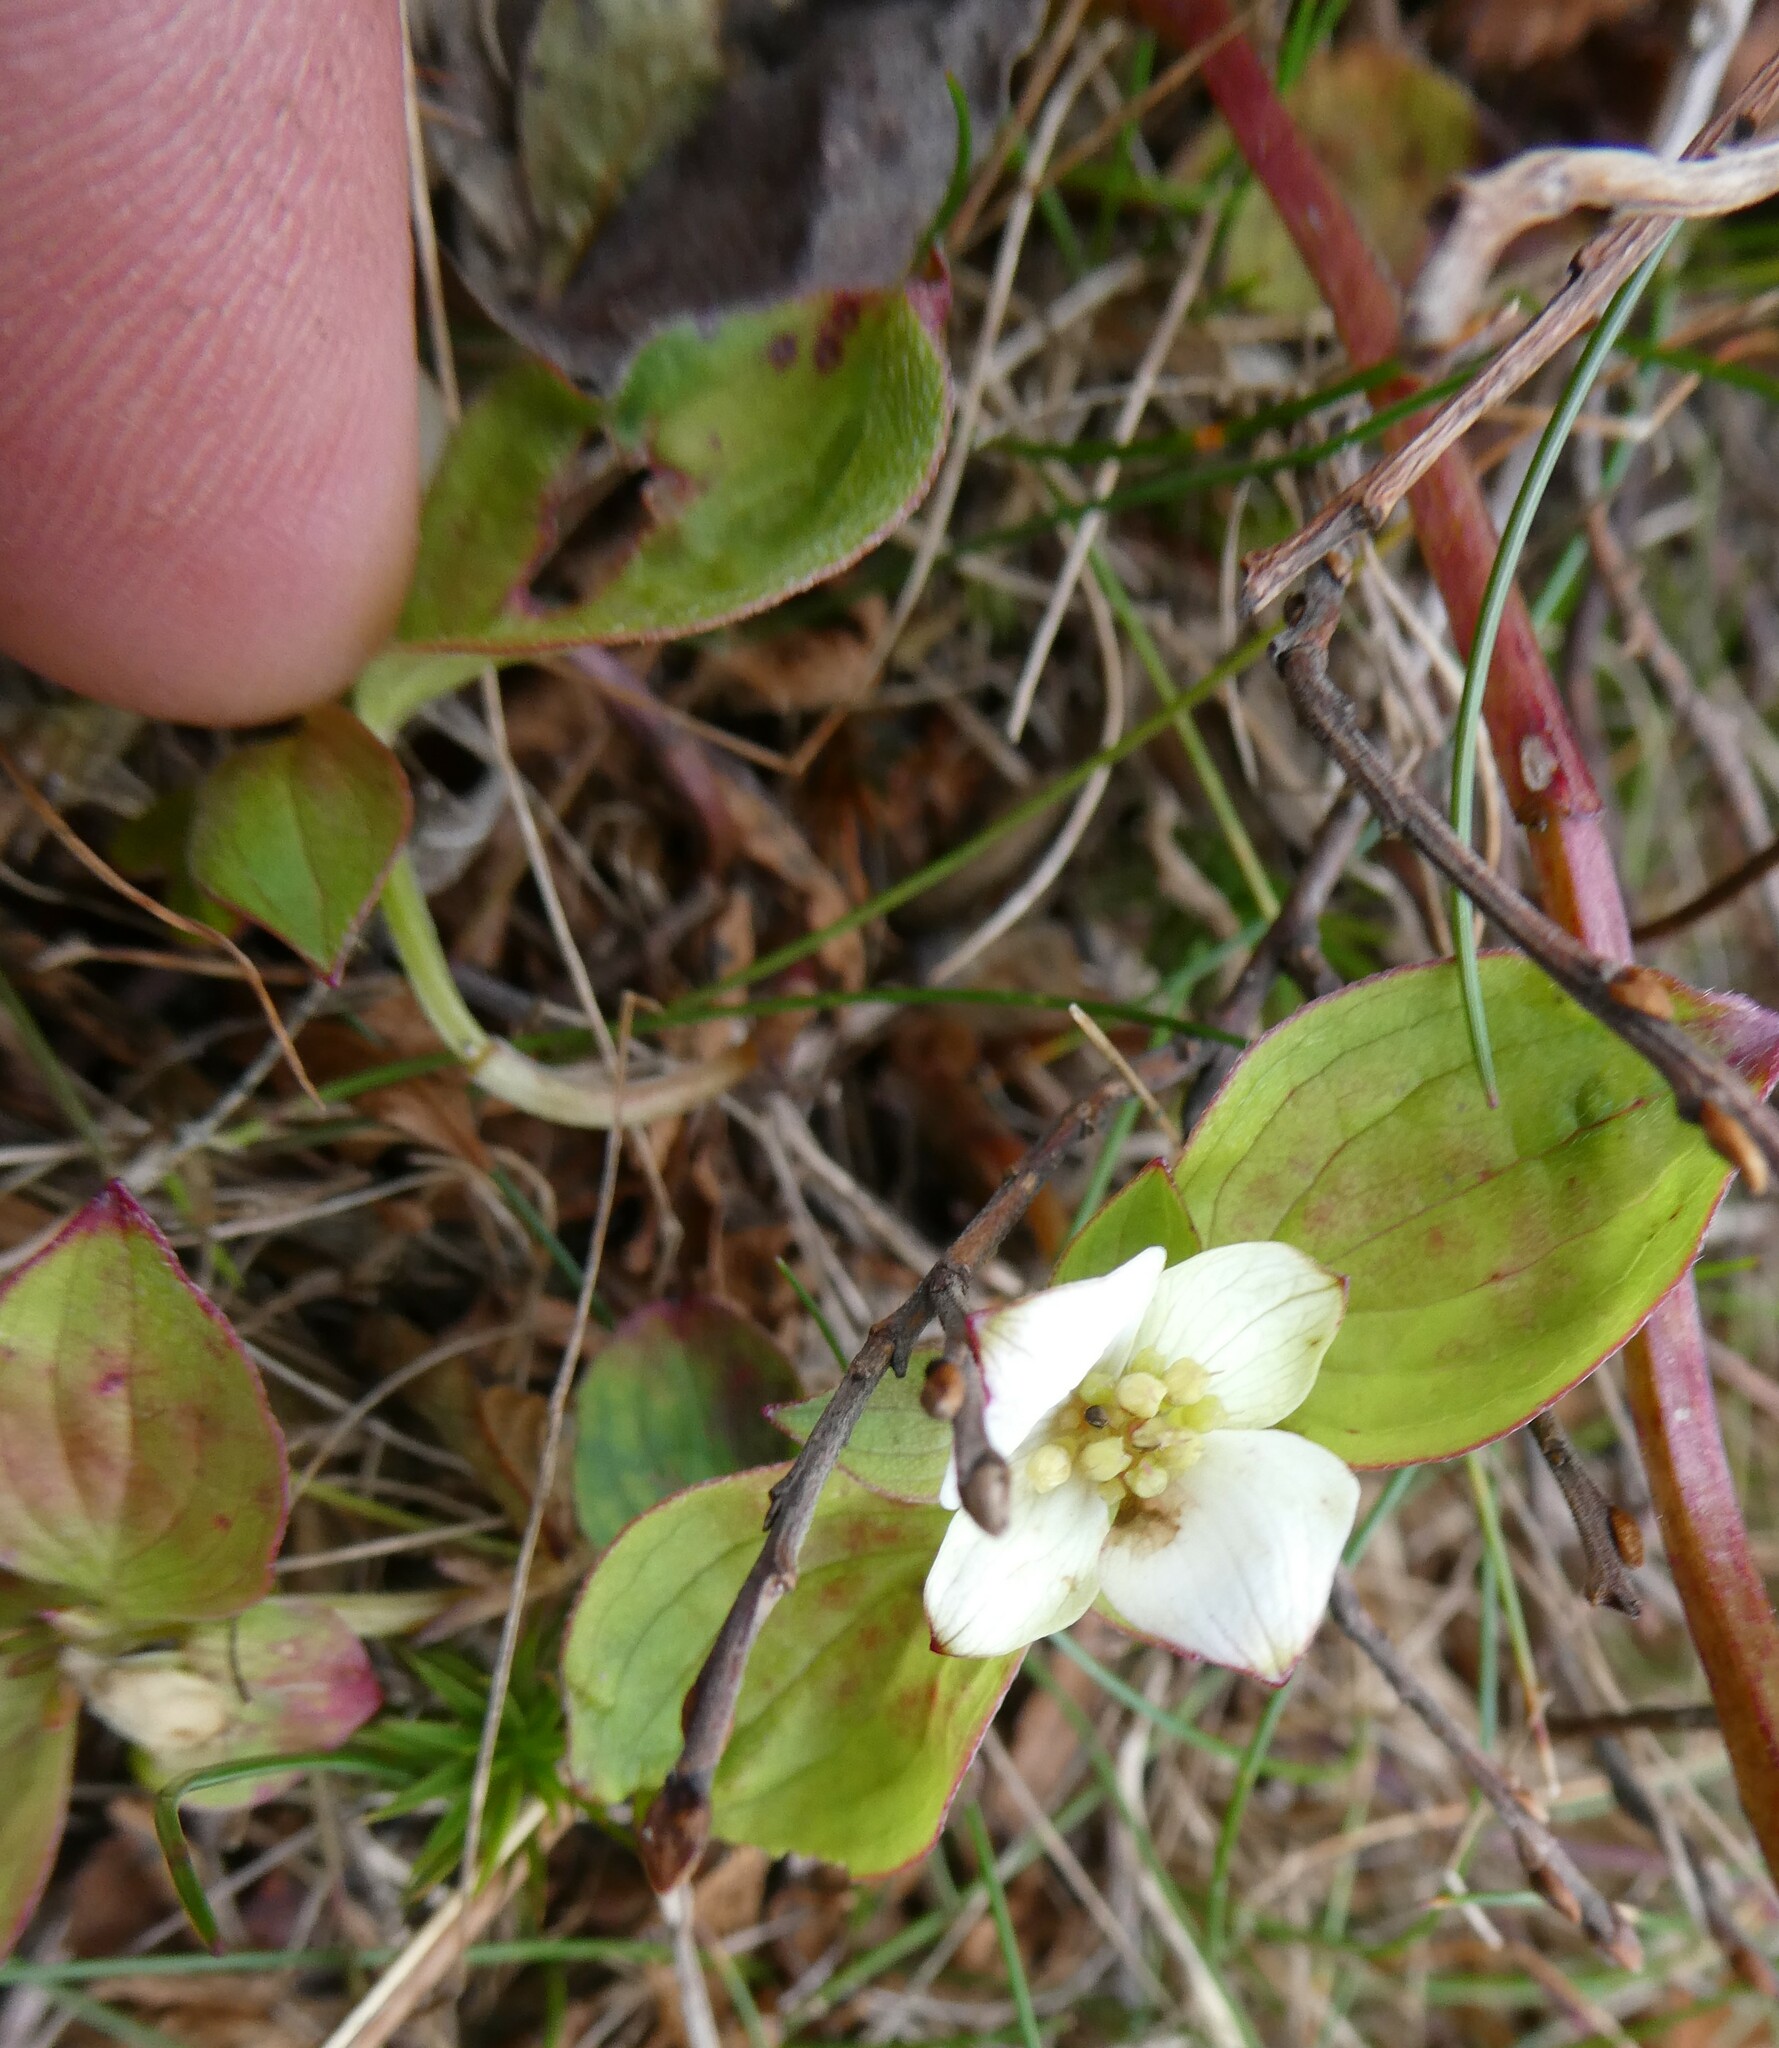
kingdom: Plantae
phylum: Tracheophyta
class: Magnoliopsida
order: Cornales
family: Cornaceae
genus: Cornus
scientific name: Cornus canadensis
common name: Creeping dogwood
